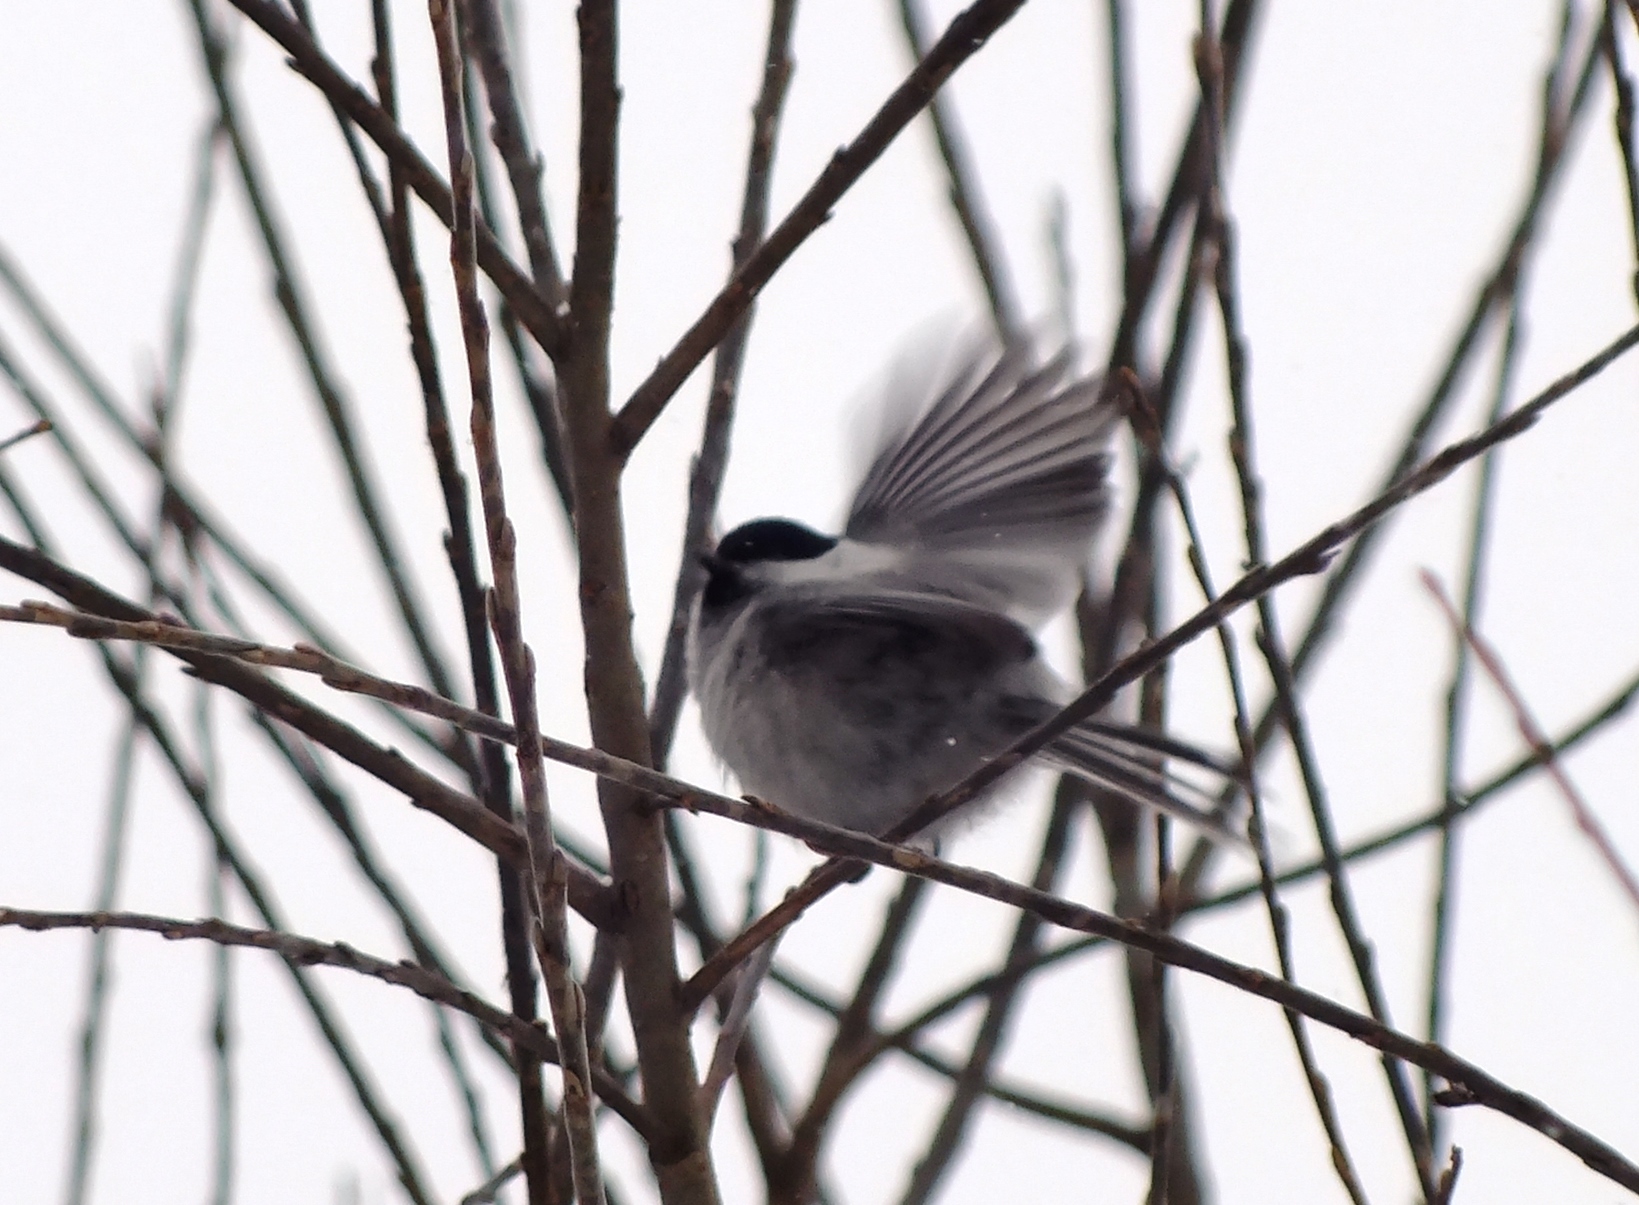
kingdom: Animalia
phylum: Chordata
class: Aves
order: Passeriformes
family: Paridae
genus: Poecile
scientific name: Poecile montanus
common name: Willow tit
